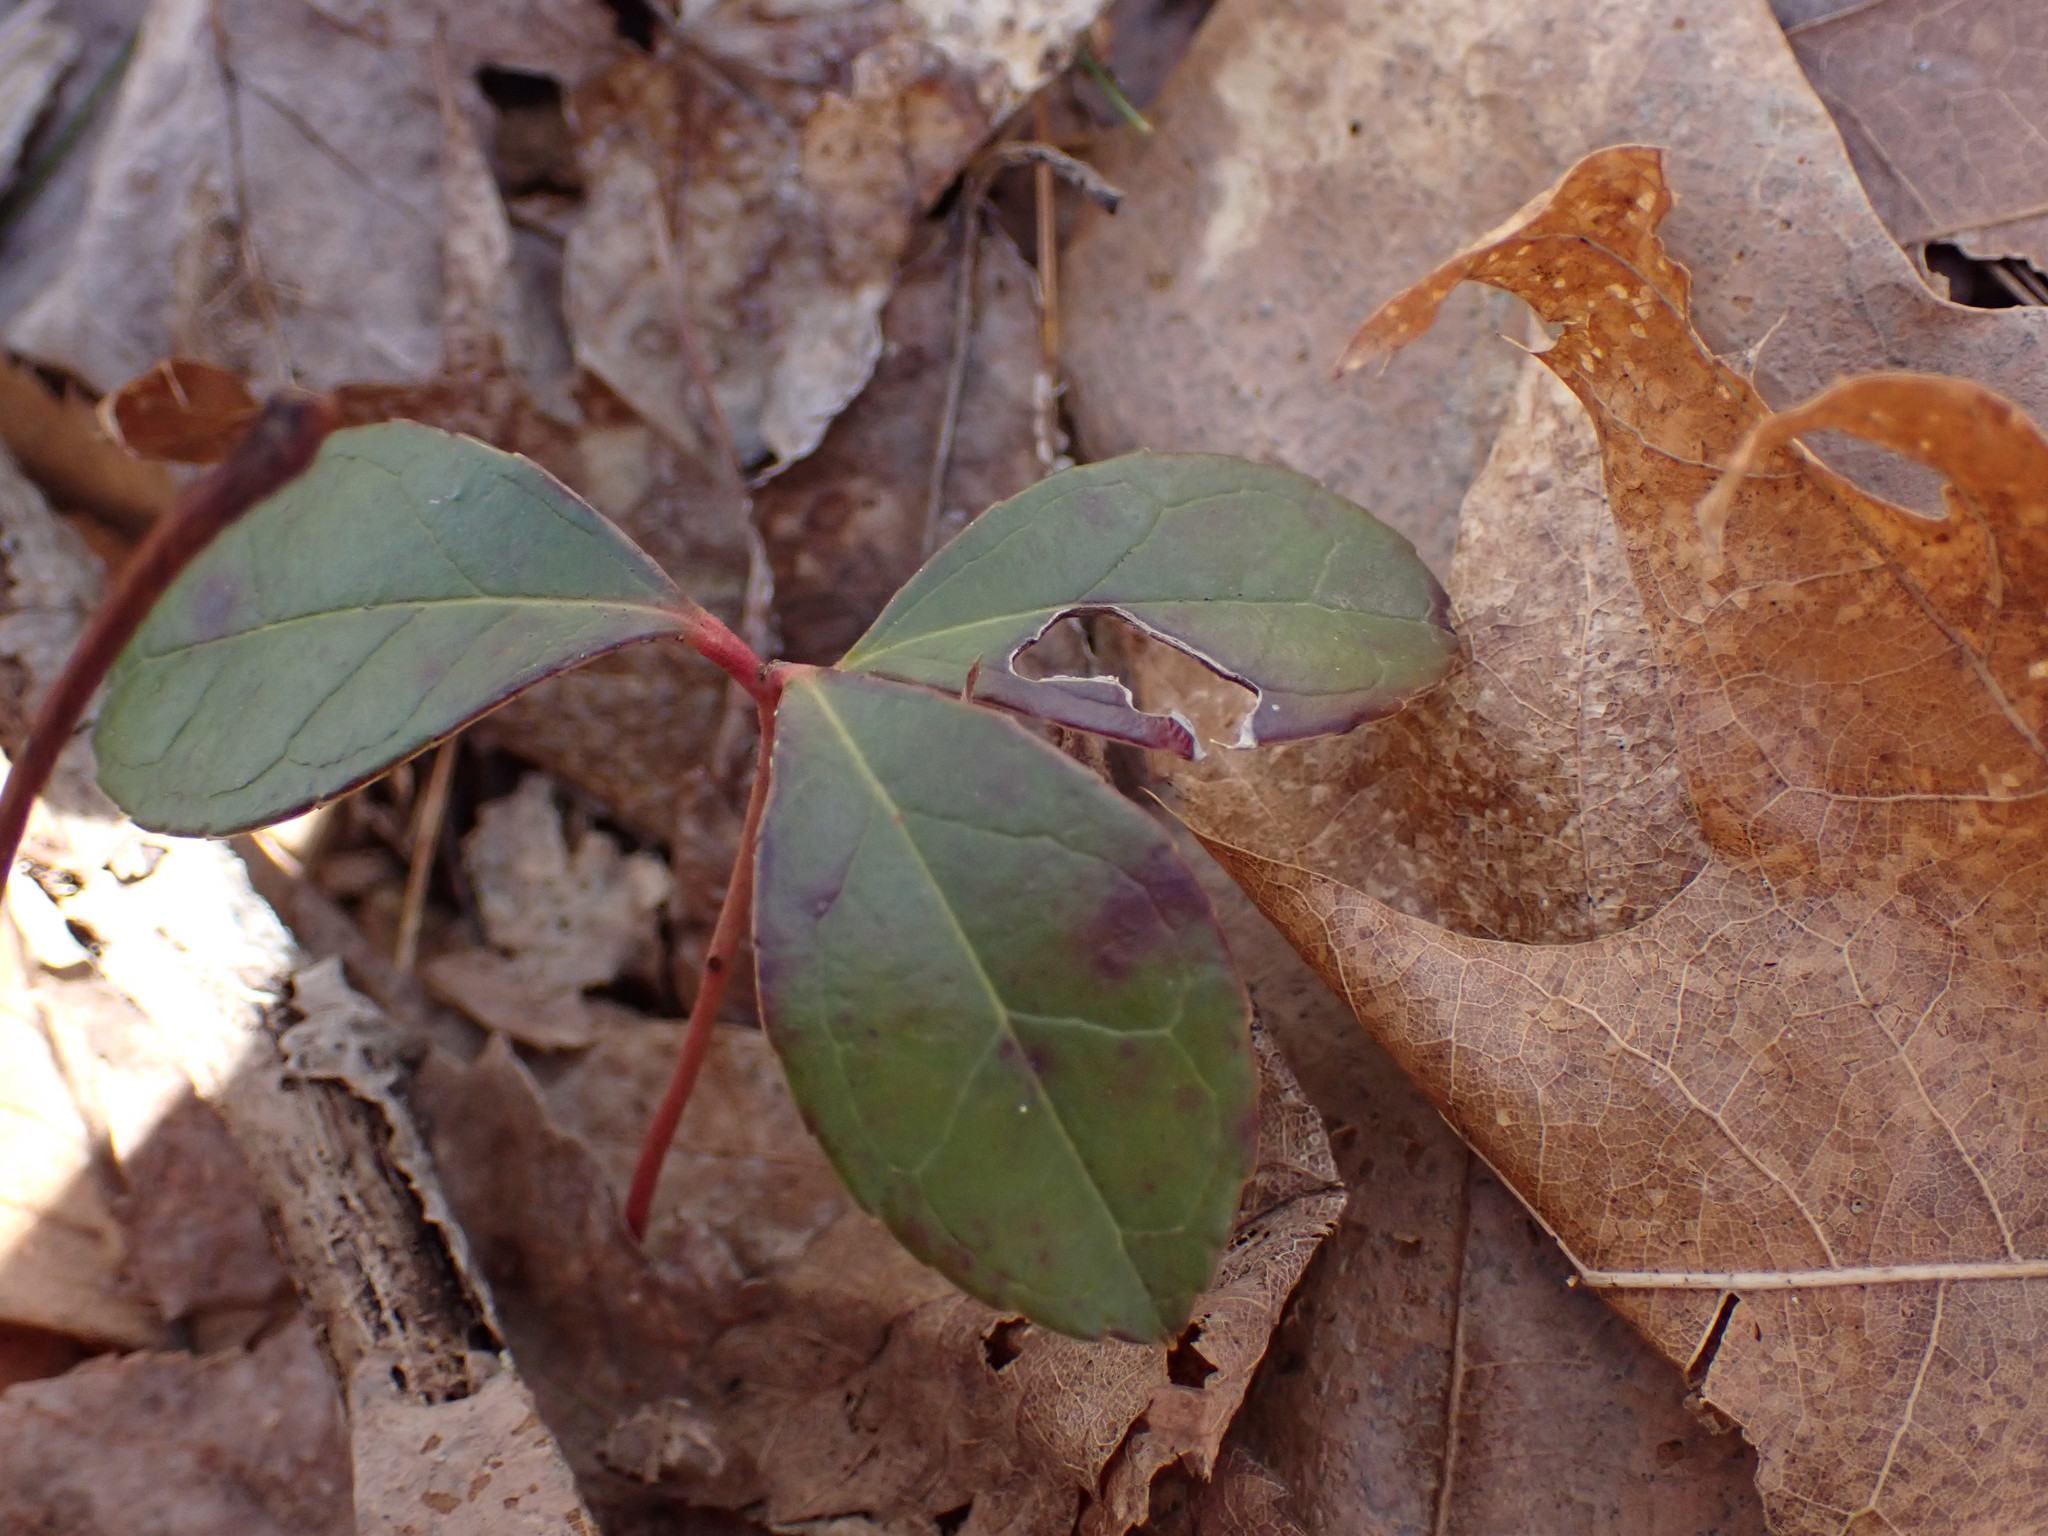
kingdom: Plantae
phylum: Tracheophyta
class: Magnoliopsida
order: Ericales
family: Ericaceae
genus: Gaultheria
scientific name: Gaultheria procumbens
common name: Checkerberry
